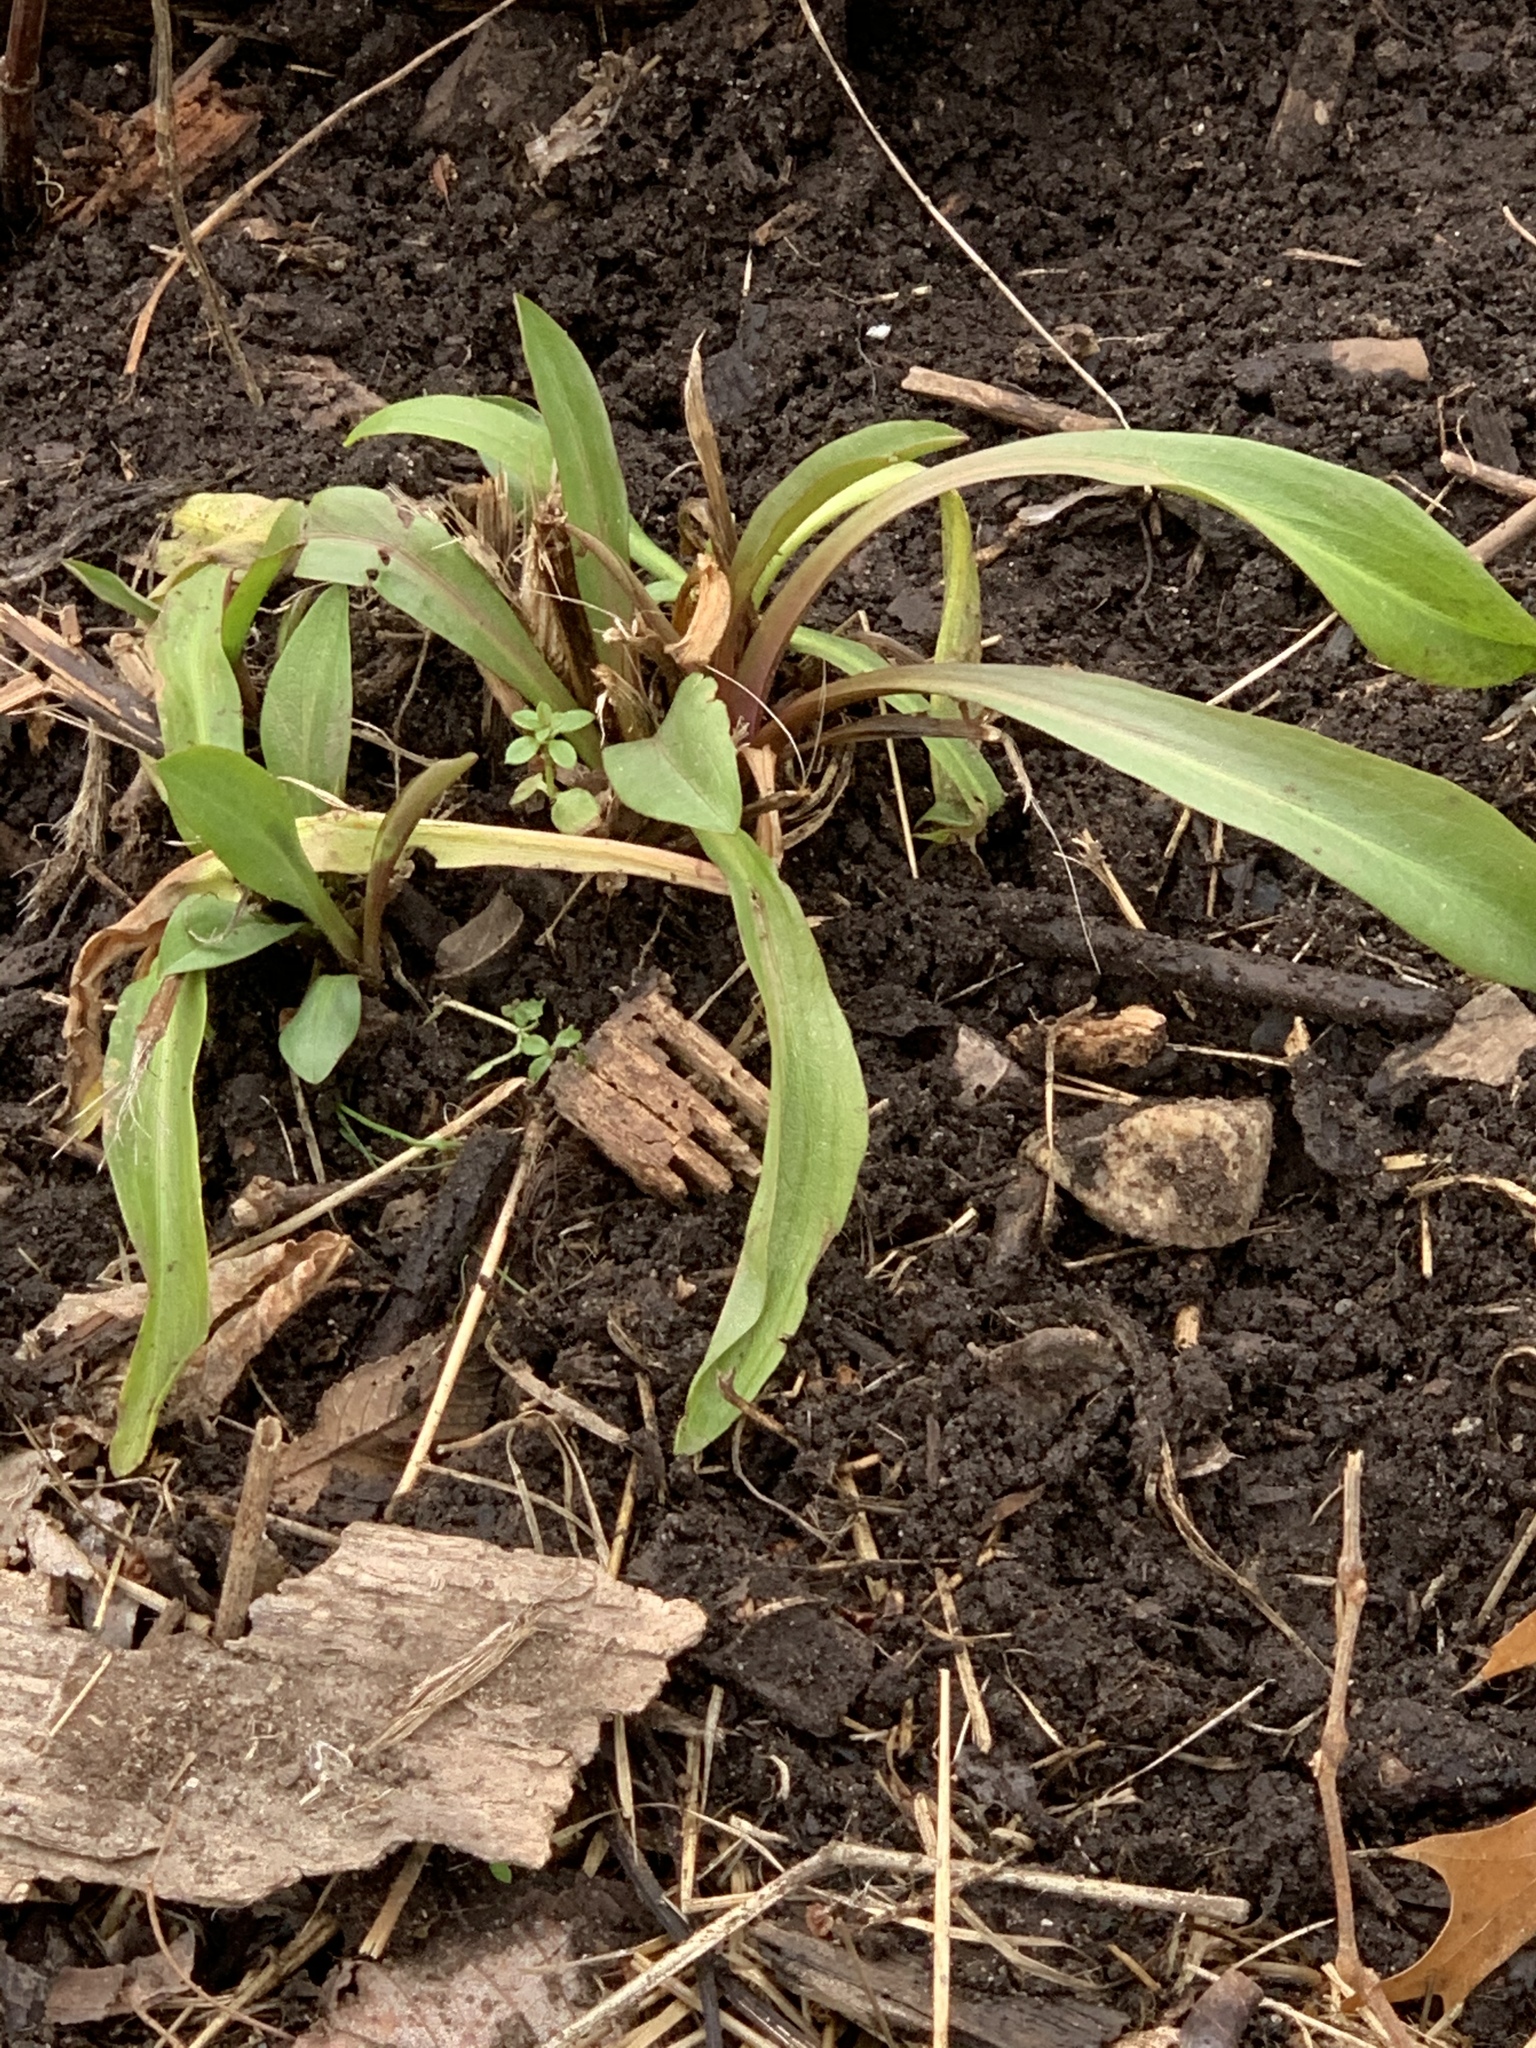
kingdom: Plantae
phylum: Tracheophyta
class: Magnoliopsida
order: Asterales
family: Asteraceae
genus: Solidago
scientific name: Solidago sempervirens
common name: Salt-marsh goldenrod
